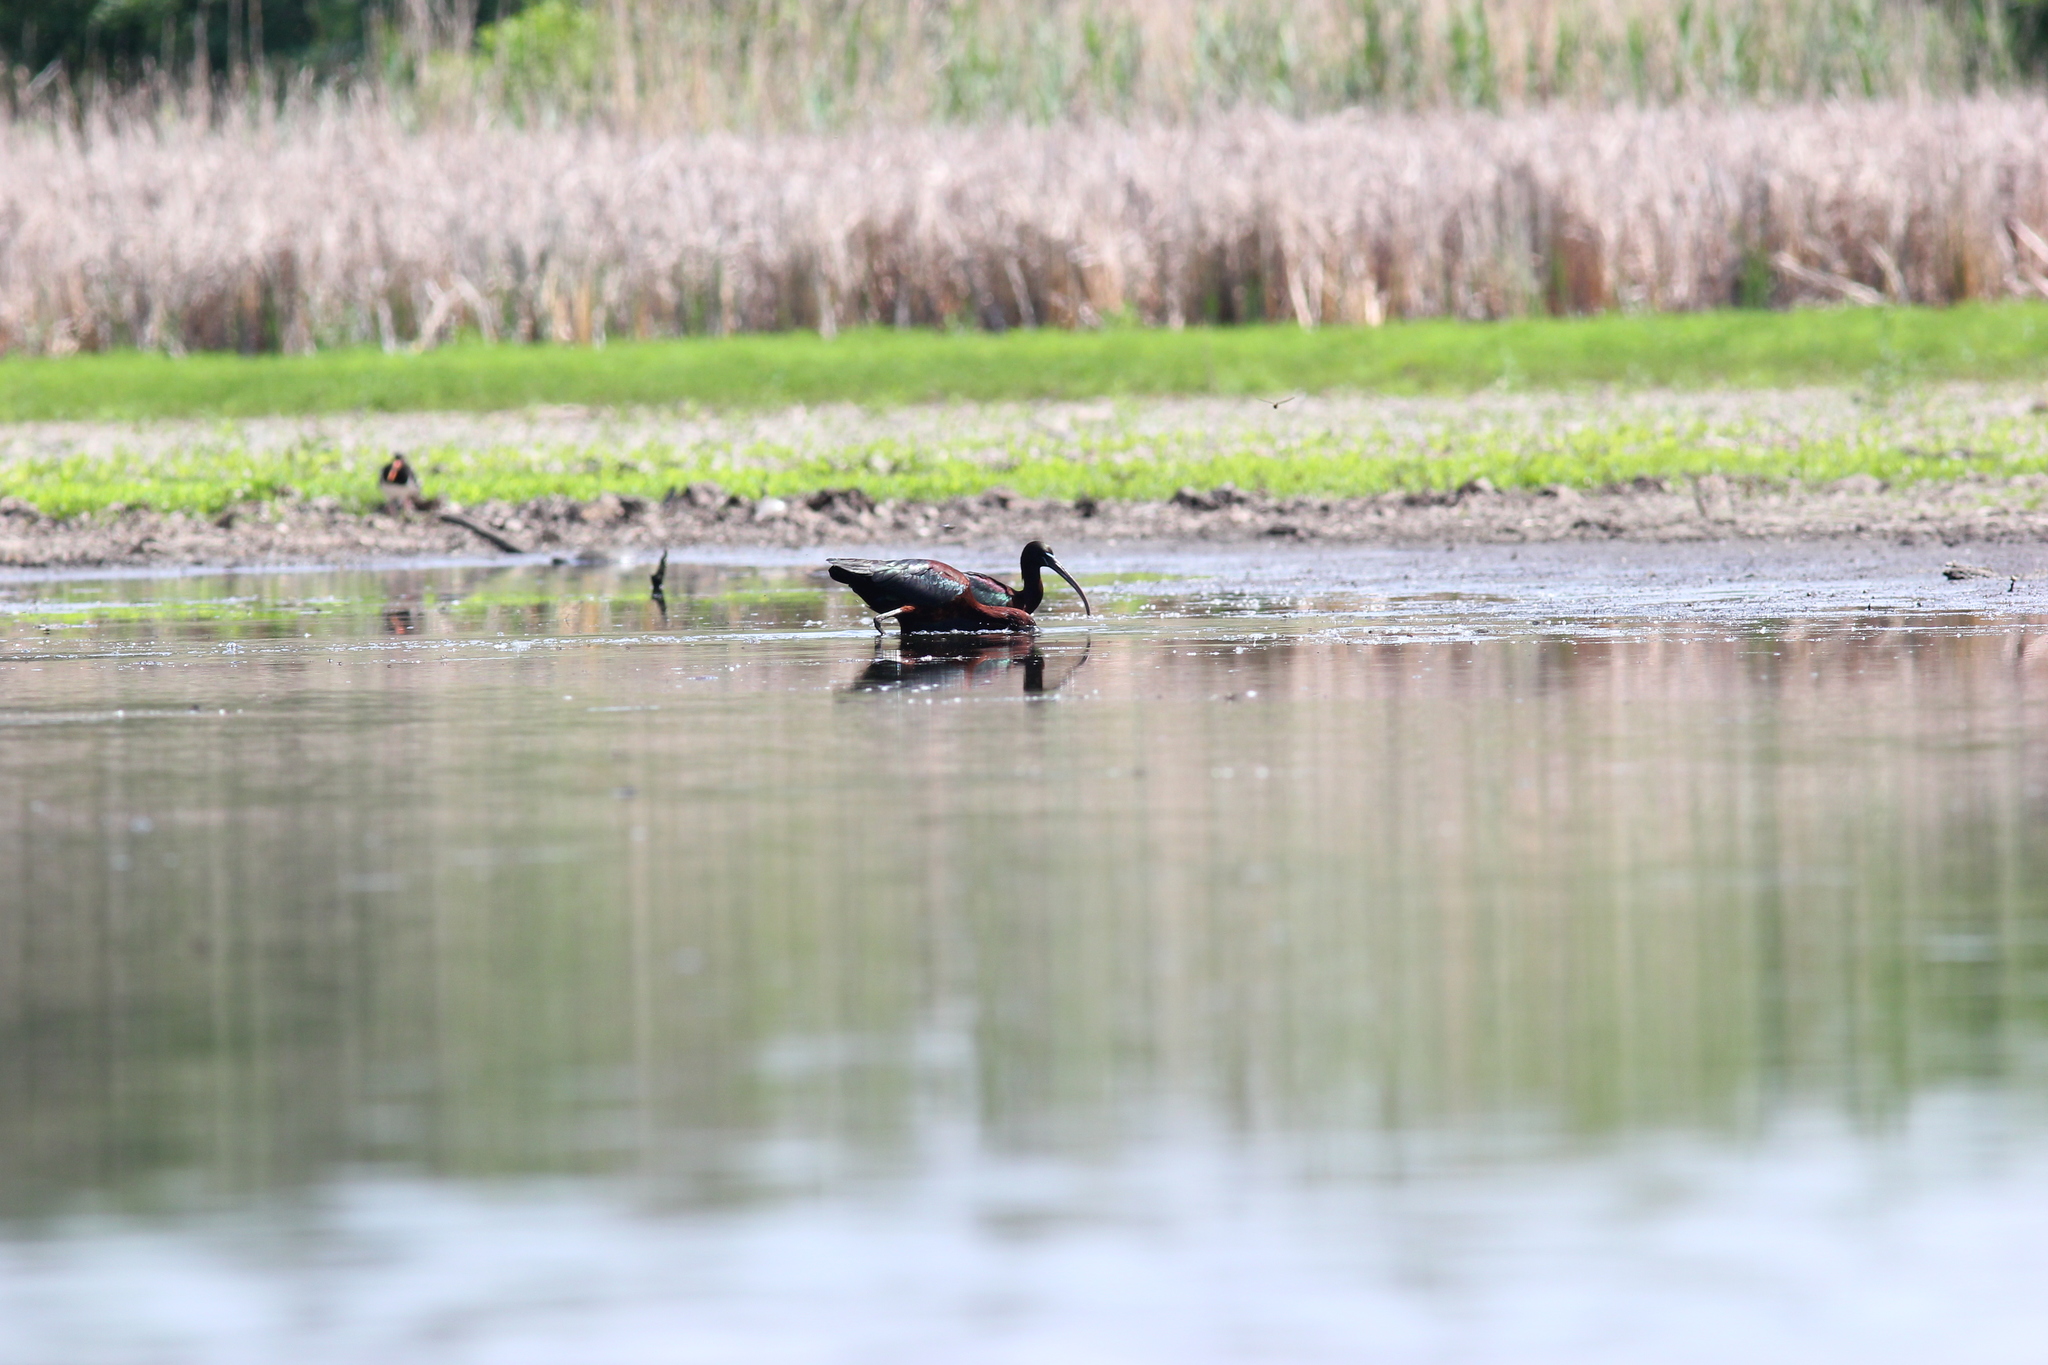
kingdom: Animalia
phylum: Chordata
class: Aves
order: Pelecaniformes
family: Threskiornithidae
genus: Plegadis
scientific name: Plegadis falcinellus
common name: Glossy ibis
